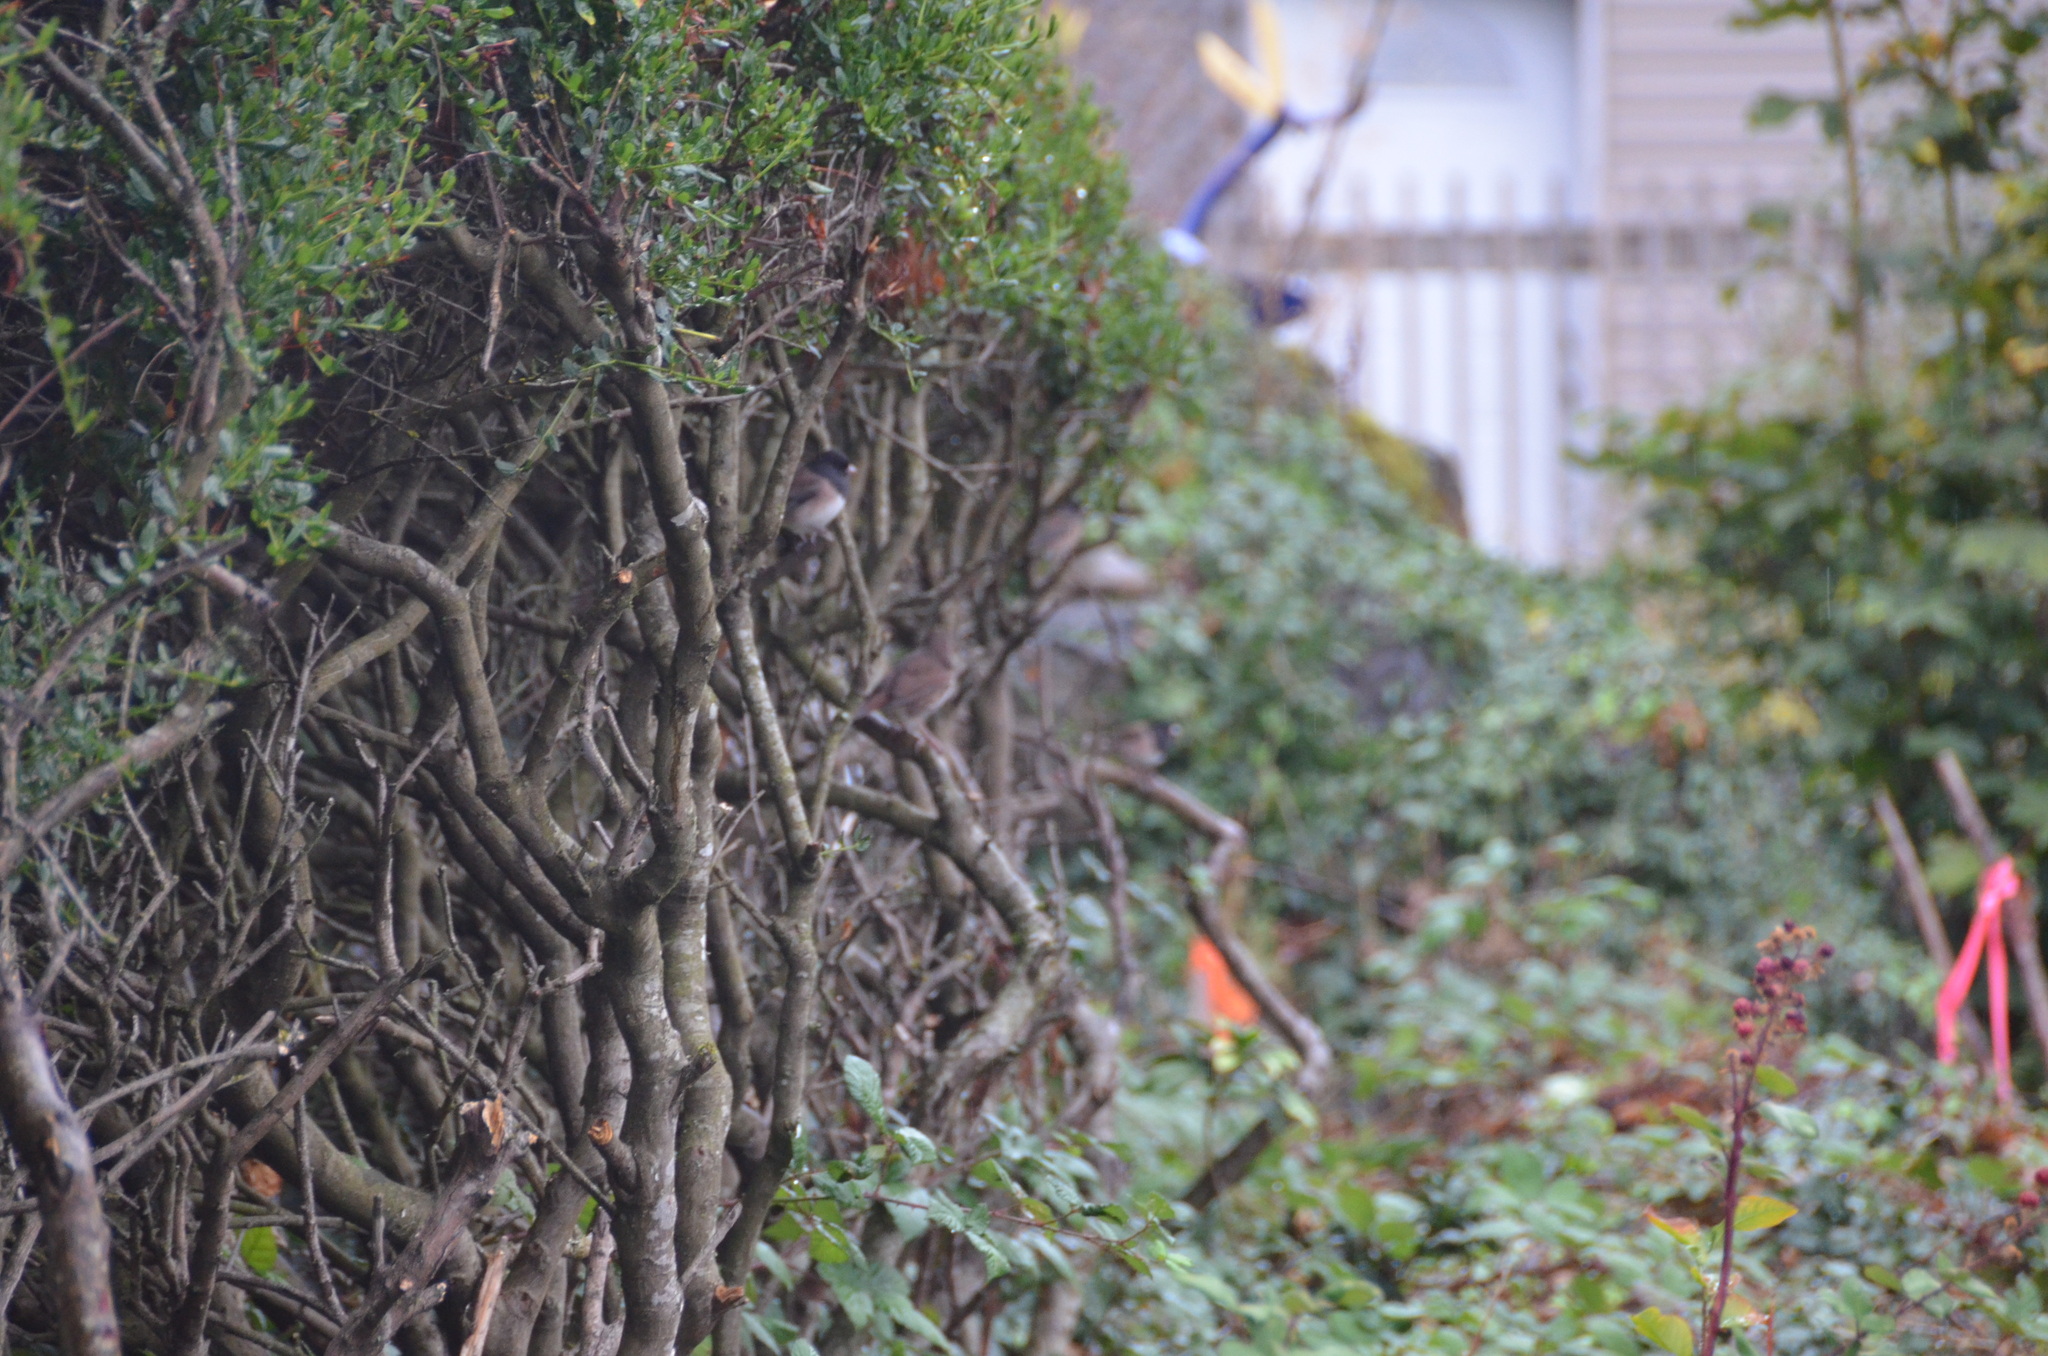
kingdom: Animalia
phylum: Chordata
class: Aves
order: Passeriformes
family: Passerellidae
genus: Junco
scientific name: Junco hyemalis
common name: Dark-eyed junco
